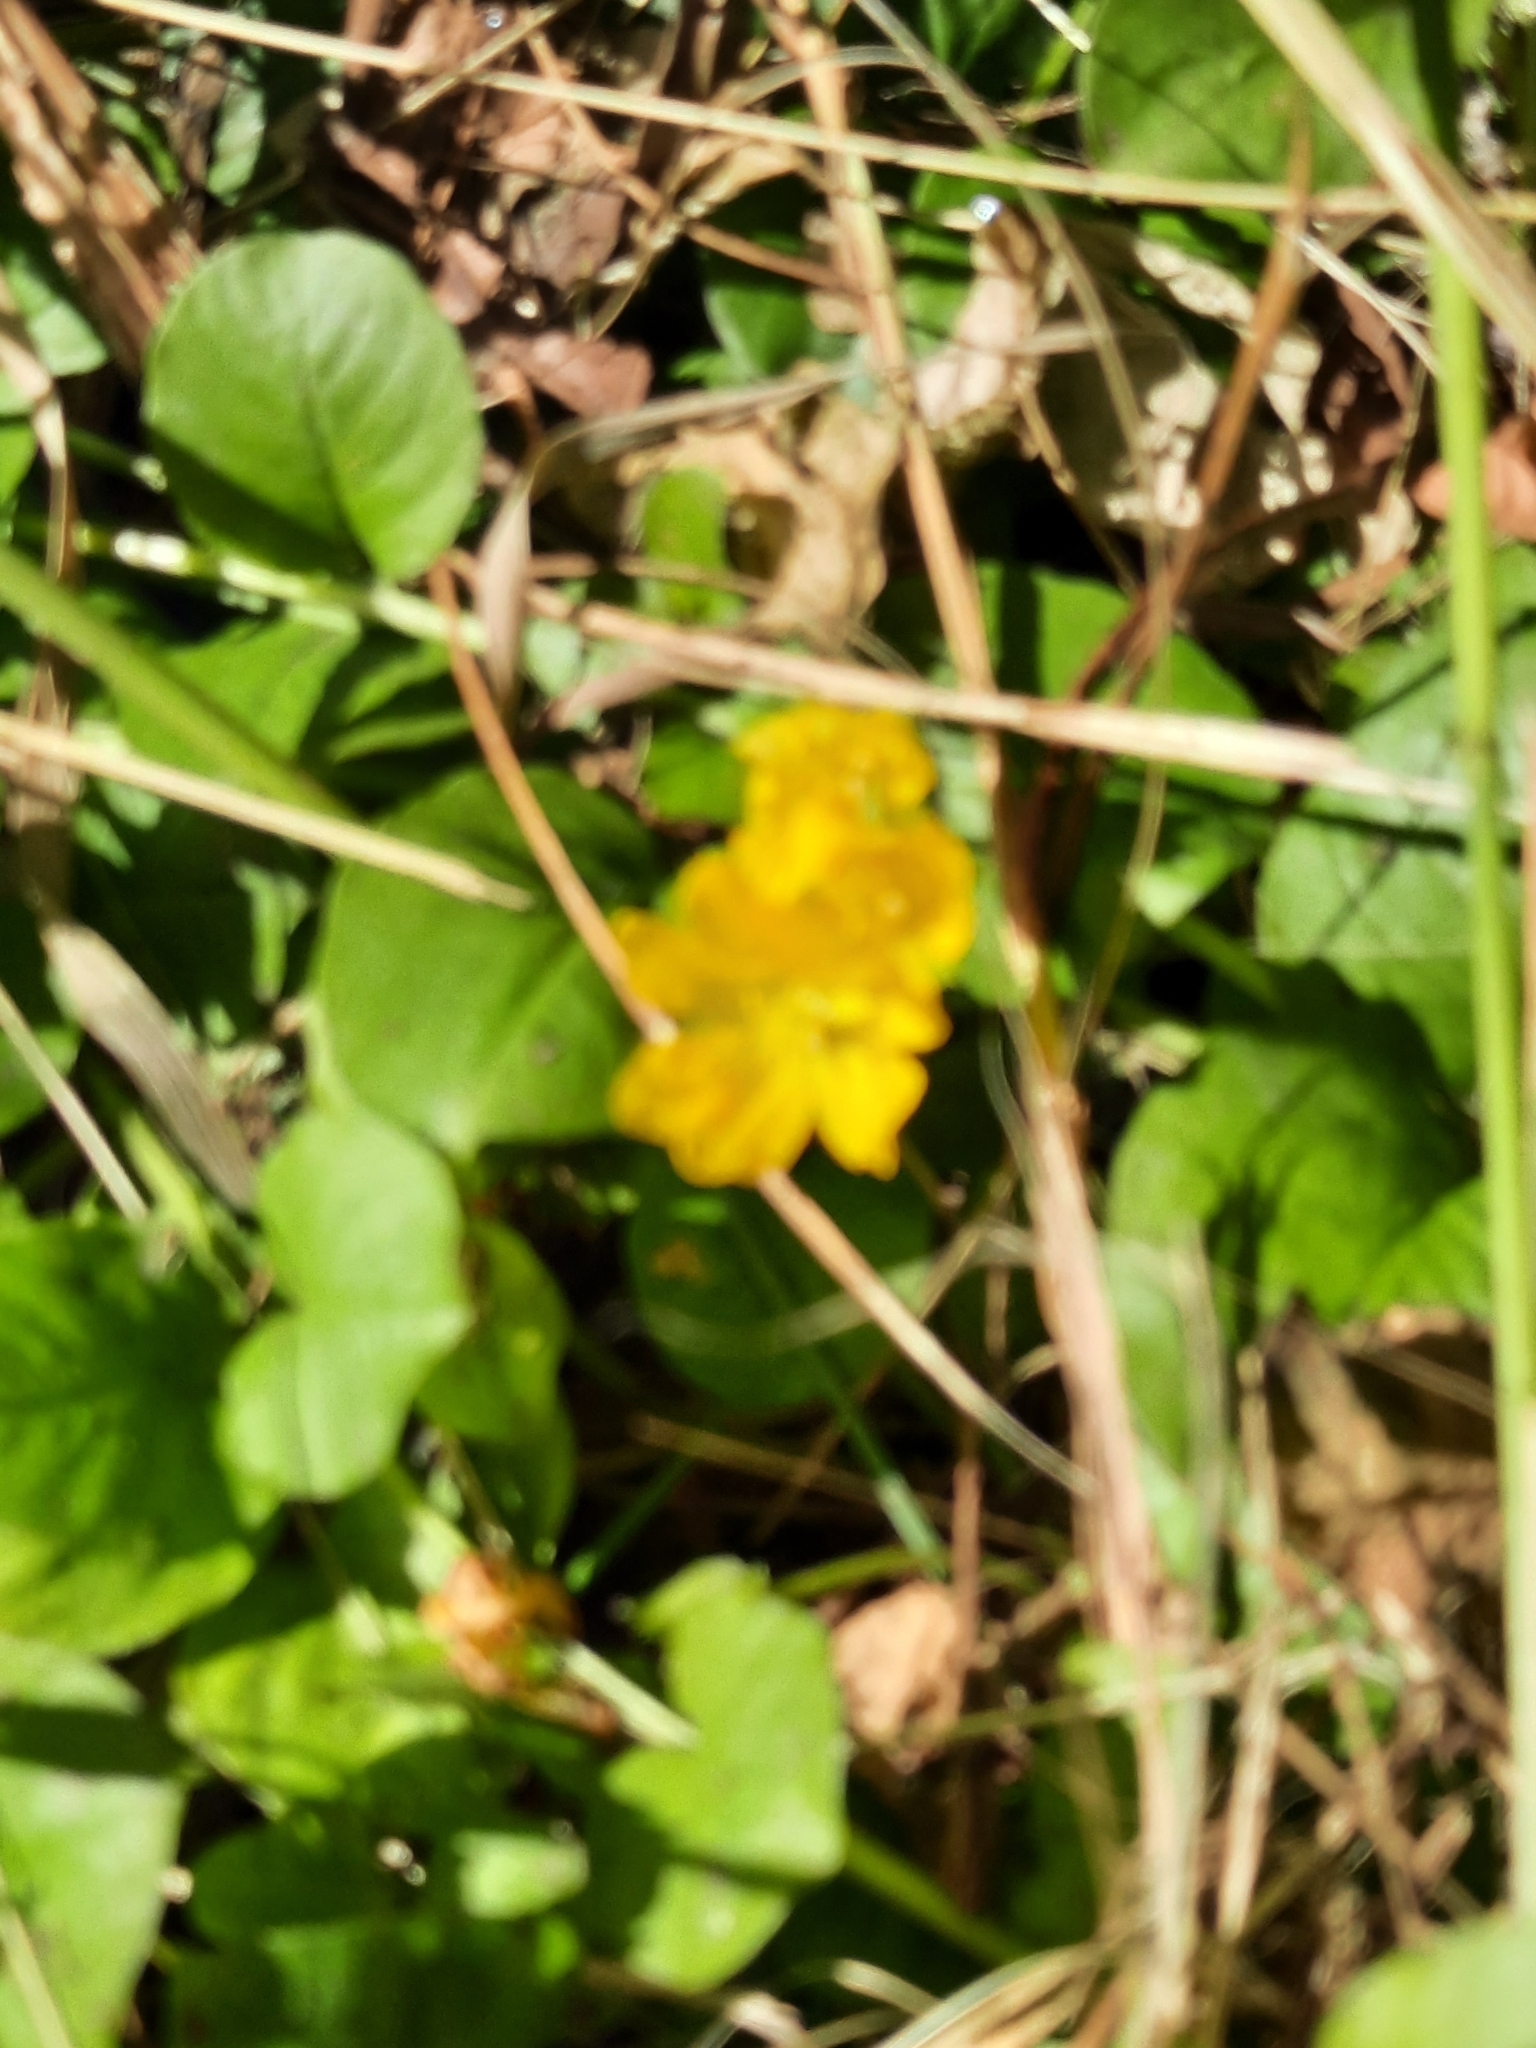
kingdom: Plantae
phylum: Tracheophyta
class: Magnoliopsida
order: Ericales
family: Primulaceae
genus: Lysimachia
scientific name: Lysimachia nummularia
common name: Moneywort
